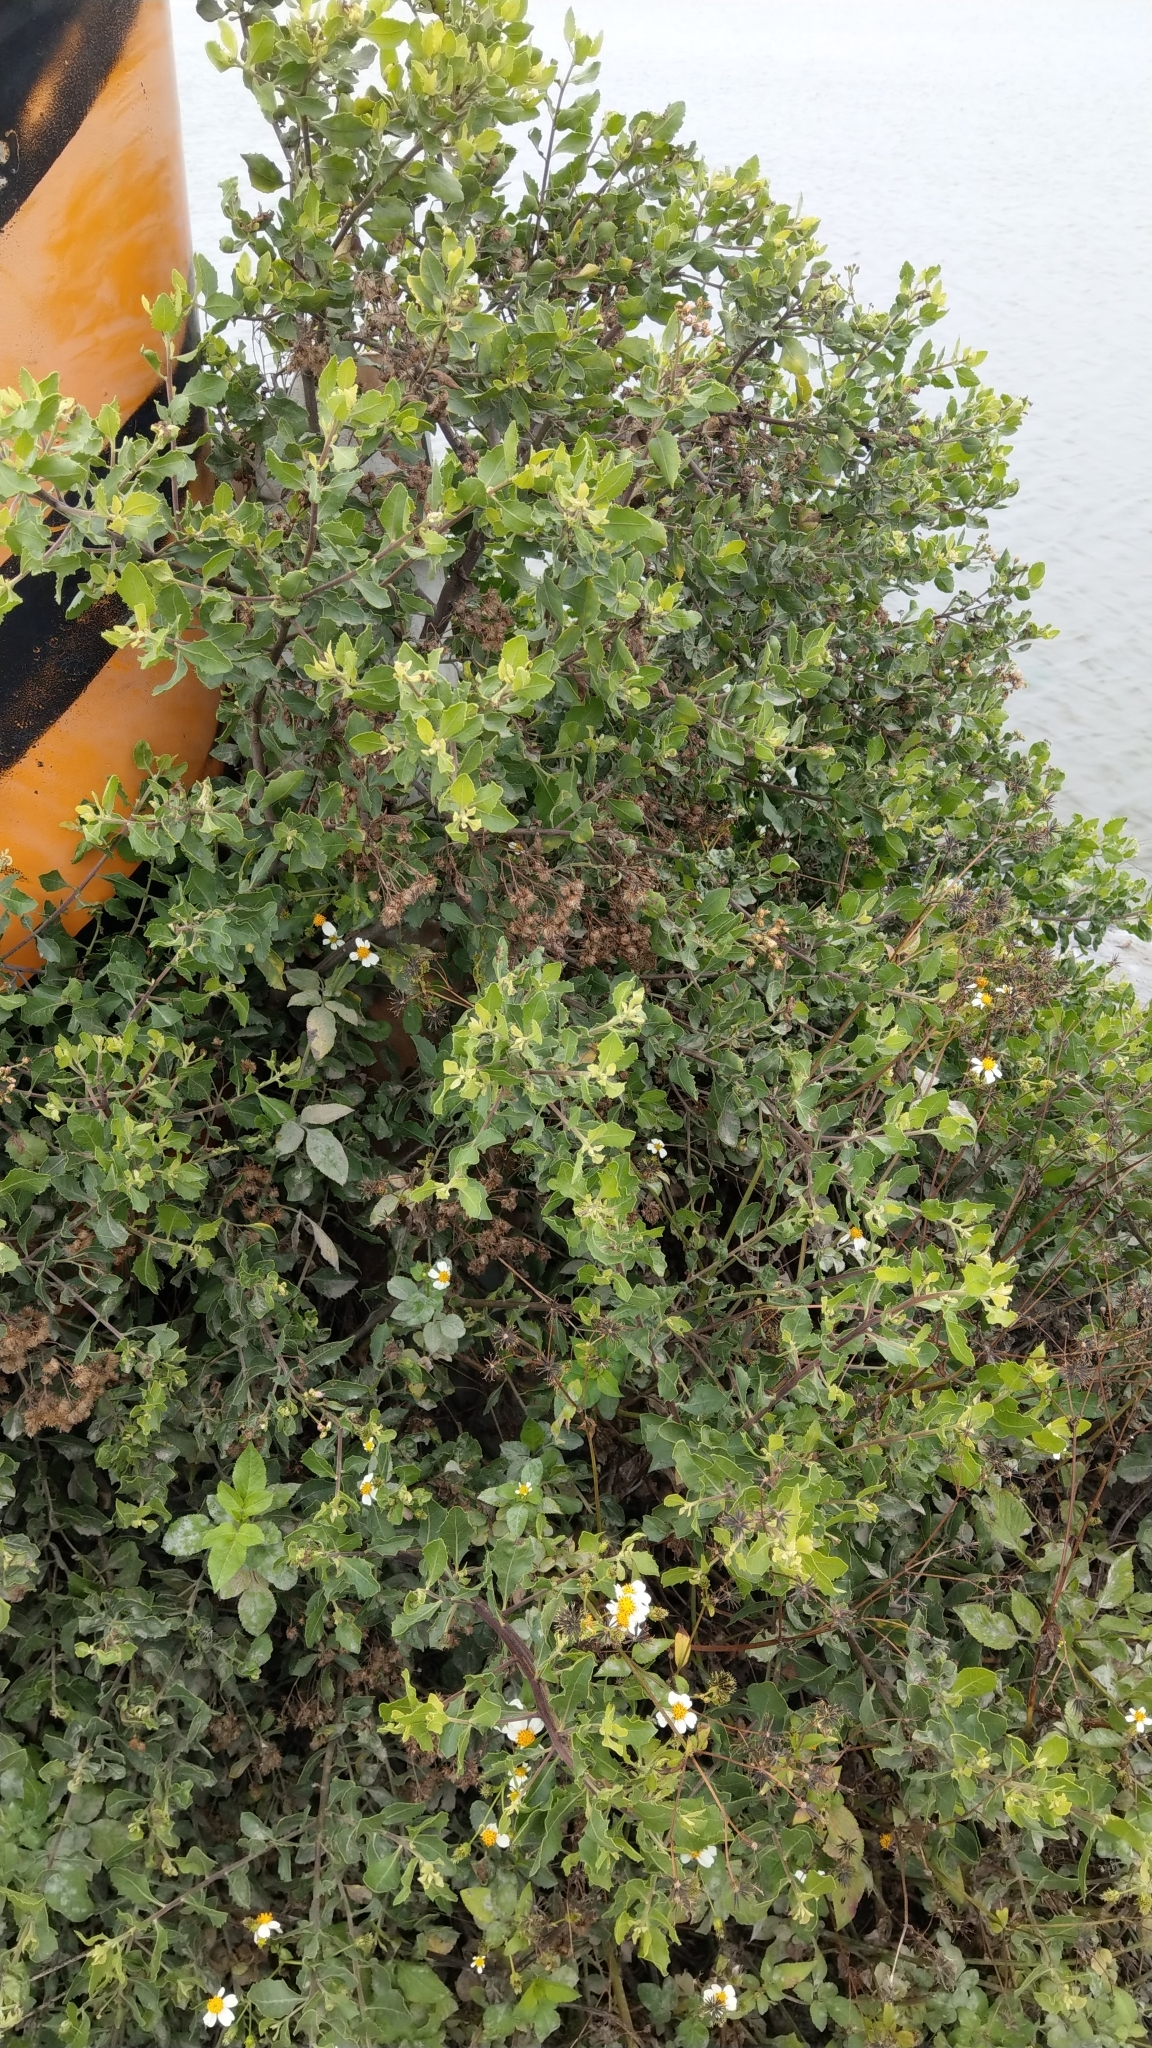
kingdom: Plantae
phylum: Tracheophyta
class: Magnoliopsida
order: Asterales
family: Asteraceae
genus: Pluchea
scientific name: Pluchea indica
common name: Indian fleabane
